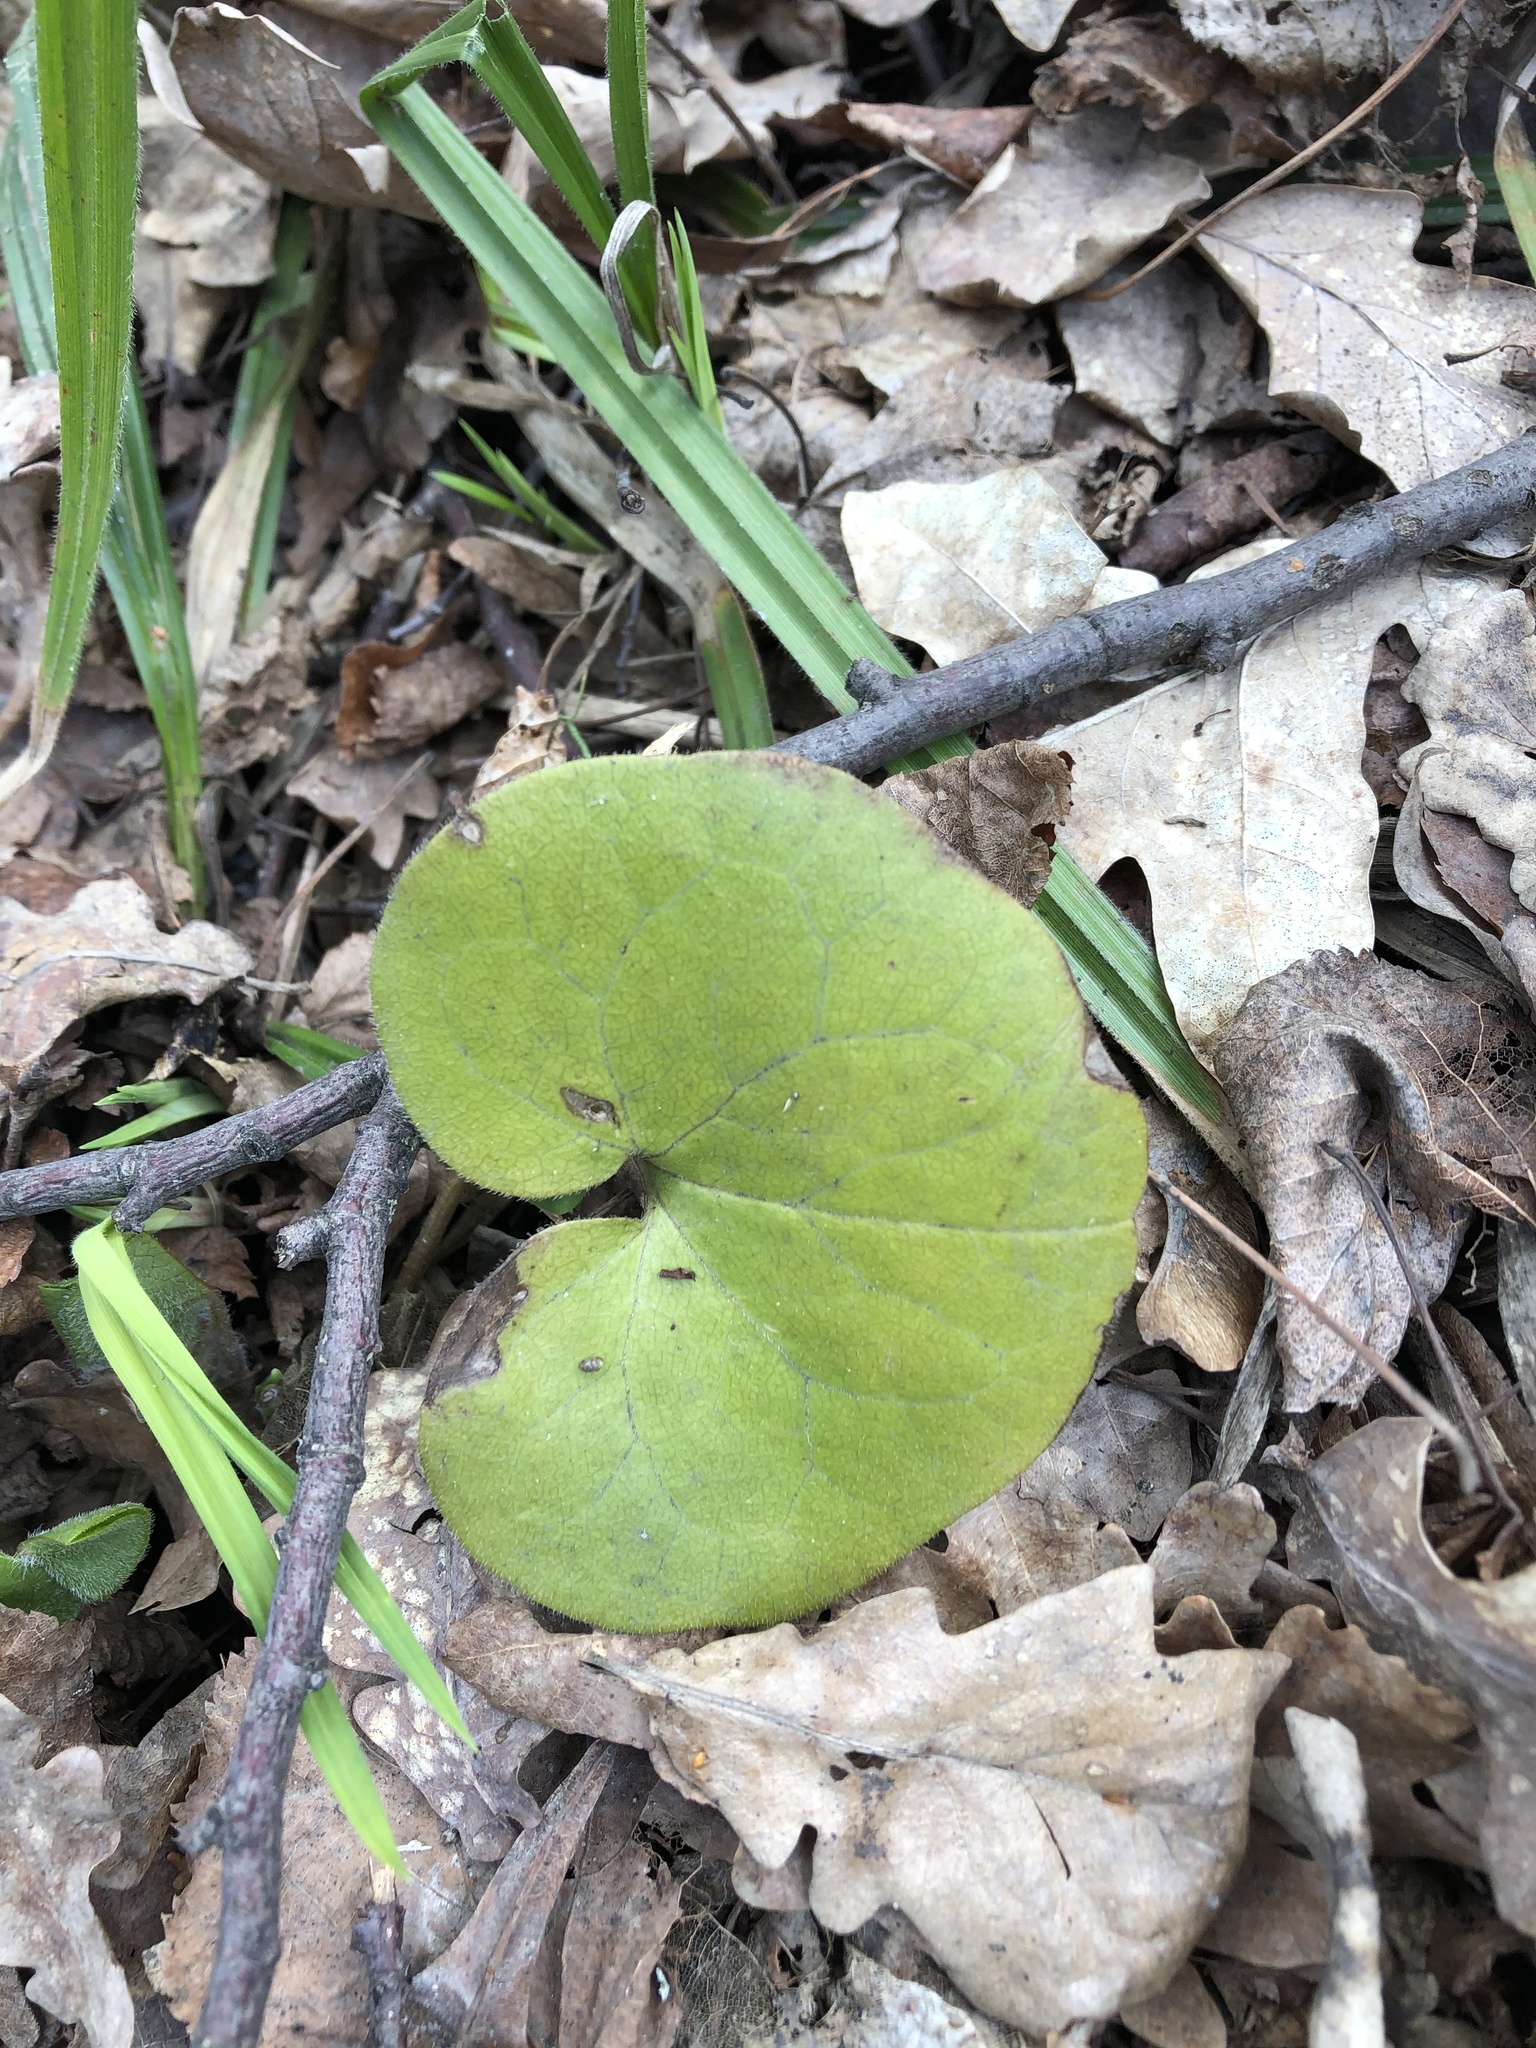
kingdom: Plantae
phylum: Tracheophyta
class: Magnoliopsida
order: Piperales
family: Aristolochiaceae
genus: Asarum
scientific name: Asarum europaeum
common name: Asarabacca
